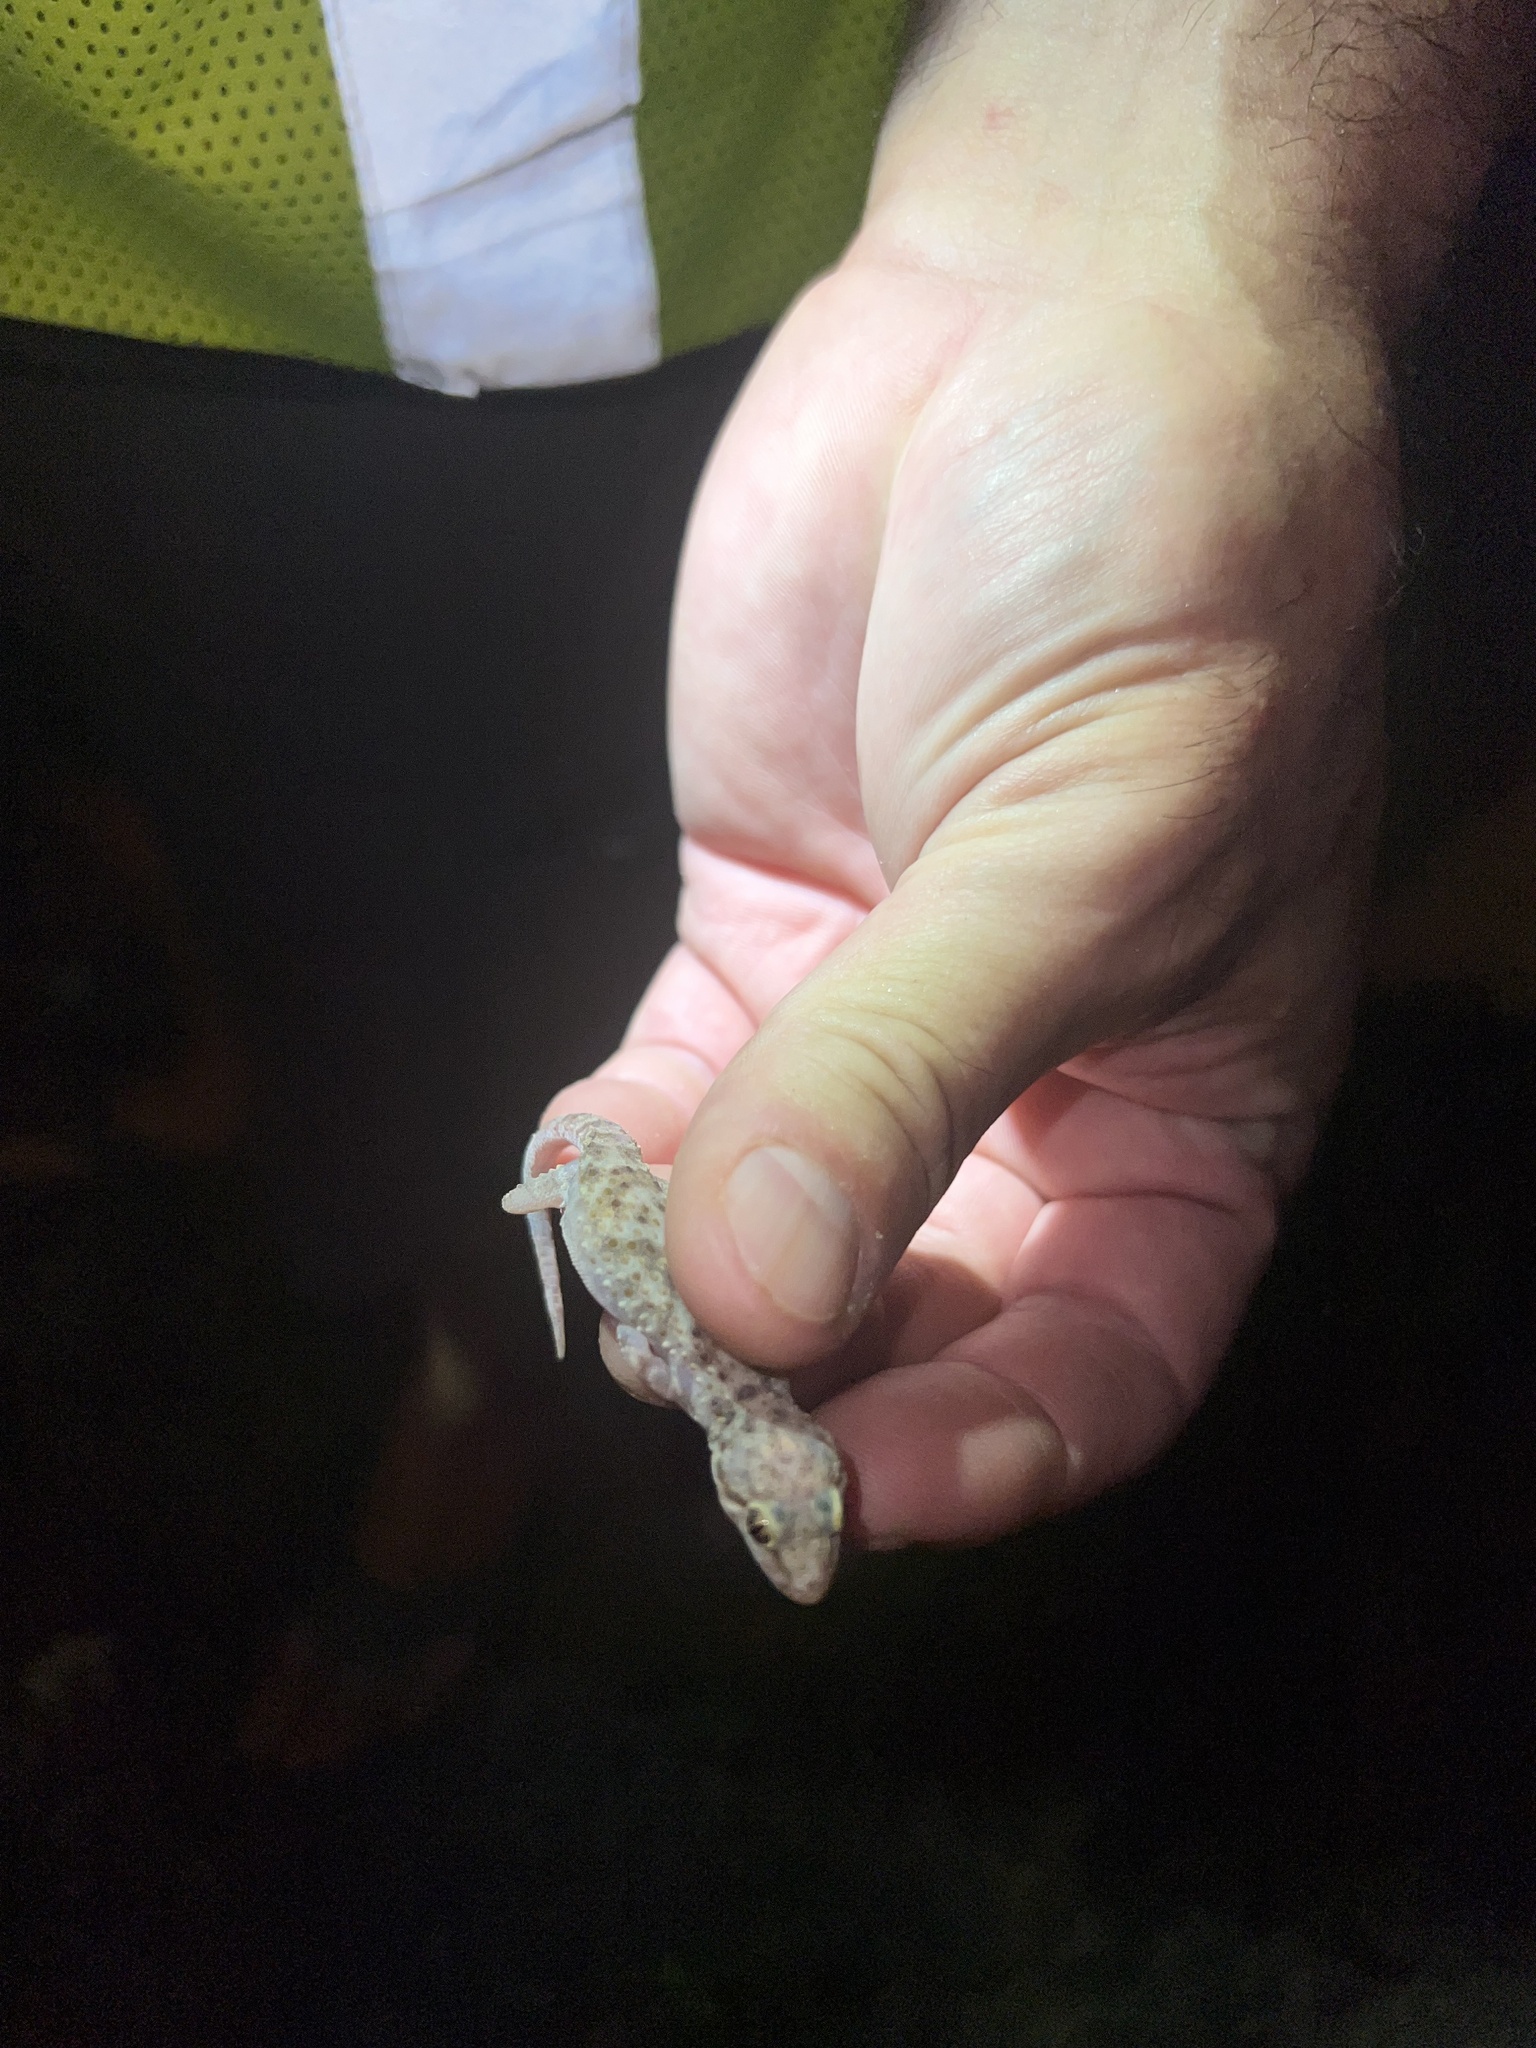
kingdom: Animalia
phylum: Chordata
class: Squamata
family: Gekkonidae
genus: Hemidactylus
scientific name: Hemidactylus turcicus
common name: Turkish gecko
